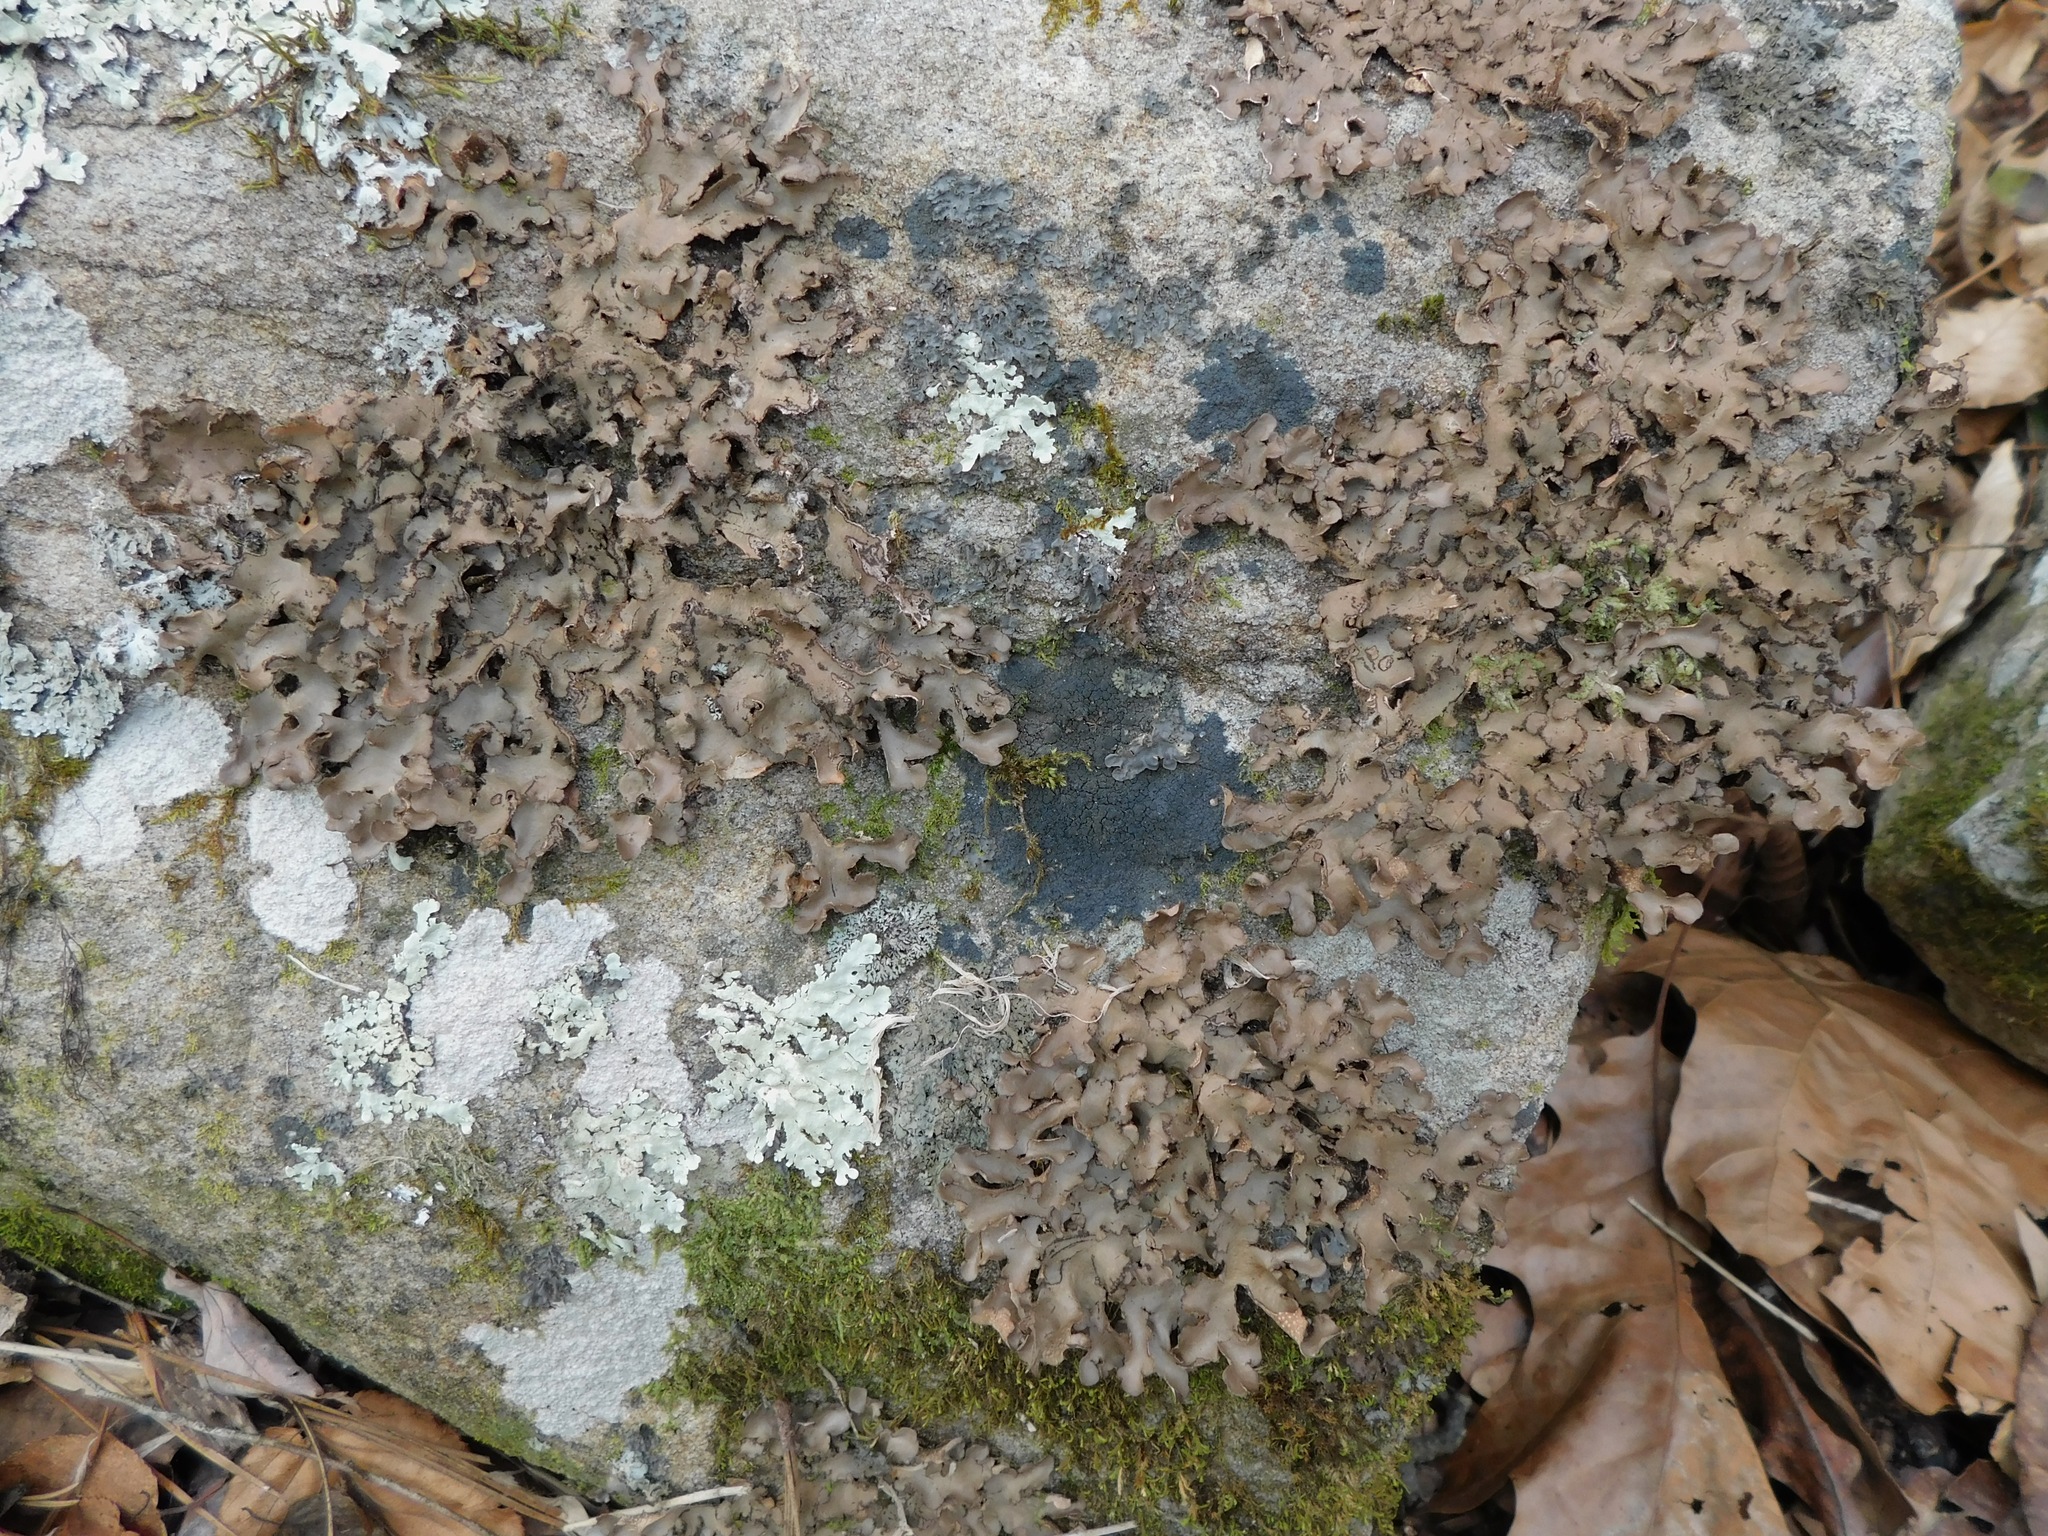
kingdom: Fungi
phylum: Ascomycota
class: Lecanoromycetes
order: Peltigerales
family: Pannariaceae
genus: Parmeliella
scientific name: Parmeliella thriptophylla
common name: Black-bordered shingle lichen
